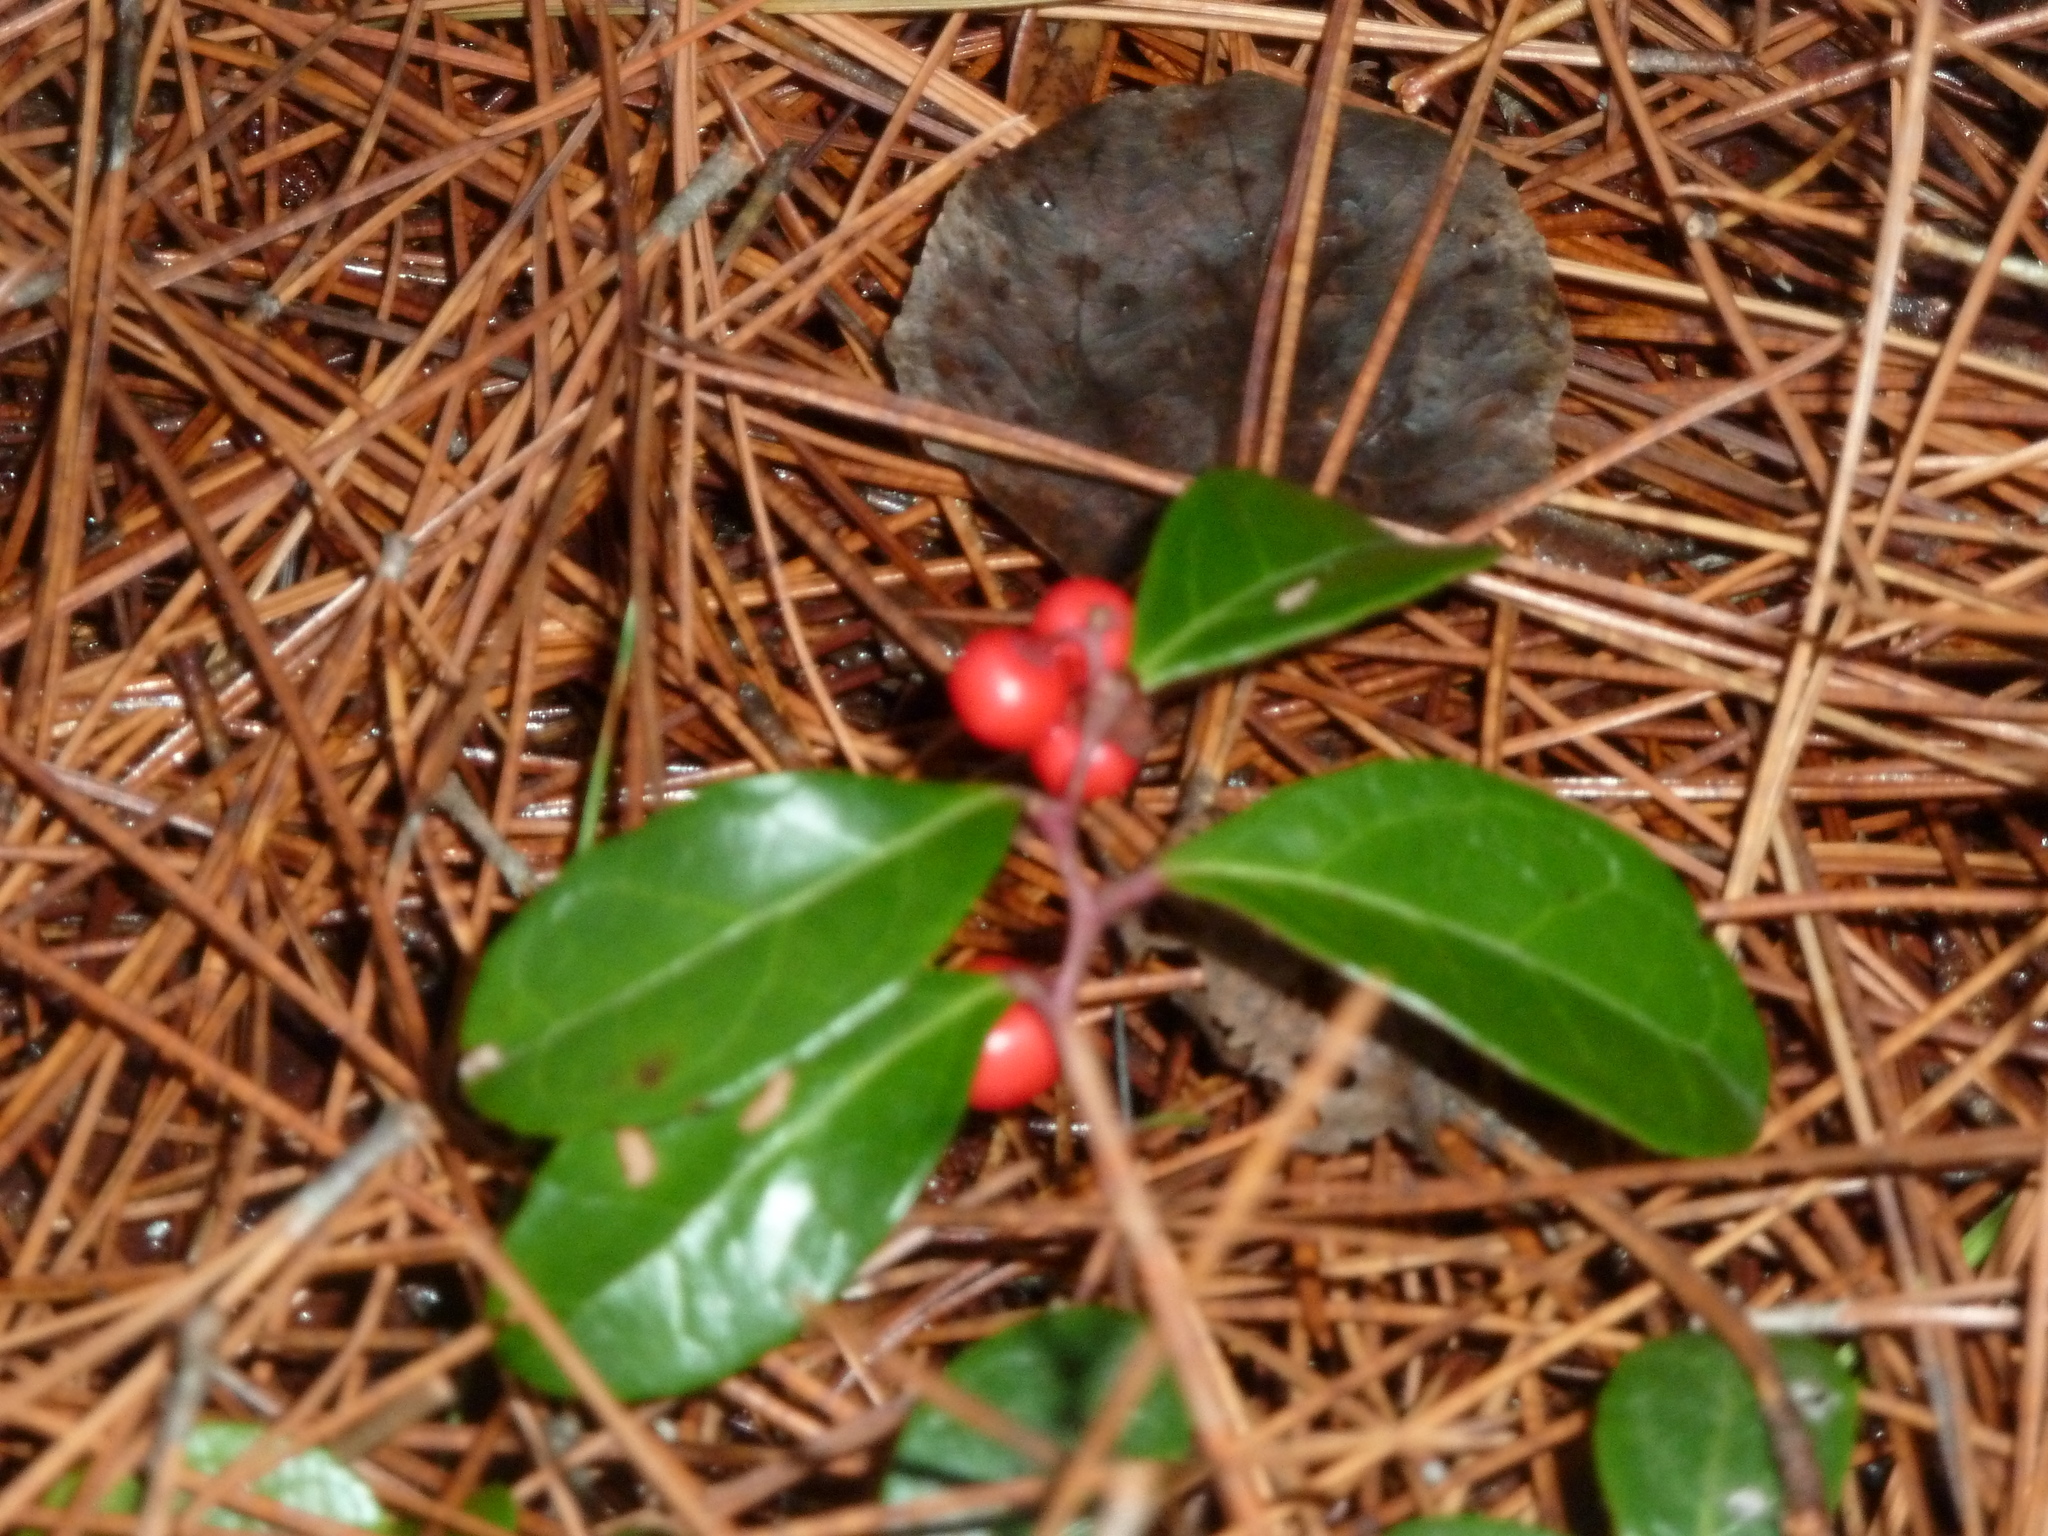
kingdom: Plantae
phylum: Tracheophyta
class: Magnoliopsida
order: Ericales
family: Ericaceae
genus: Gaultheria
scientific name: Gaultheria procumbens
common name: Checkerberry
